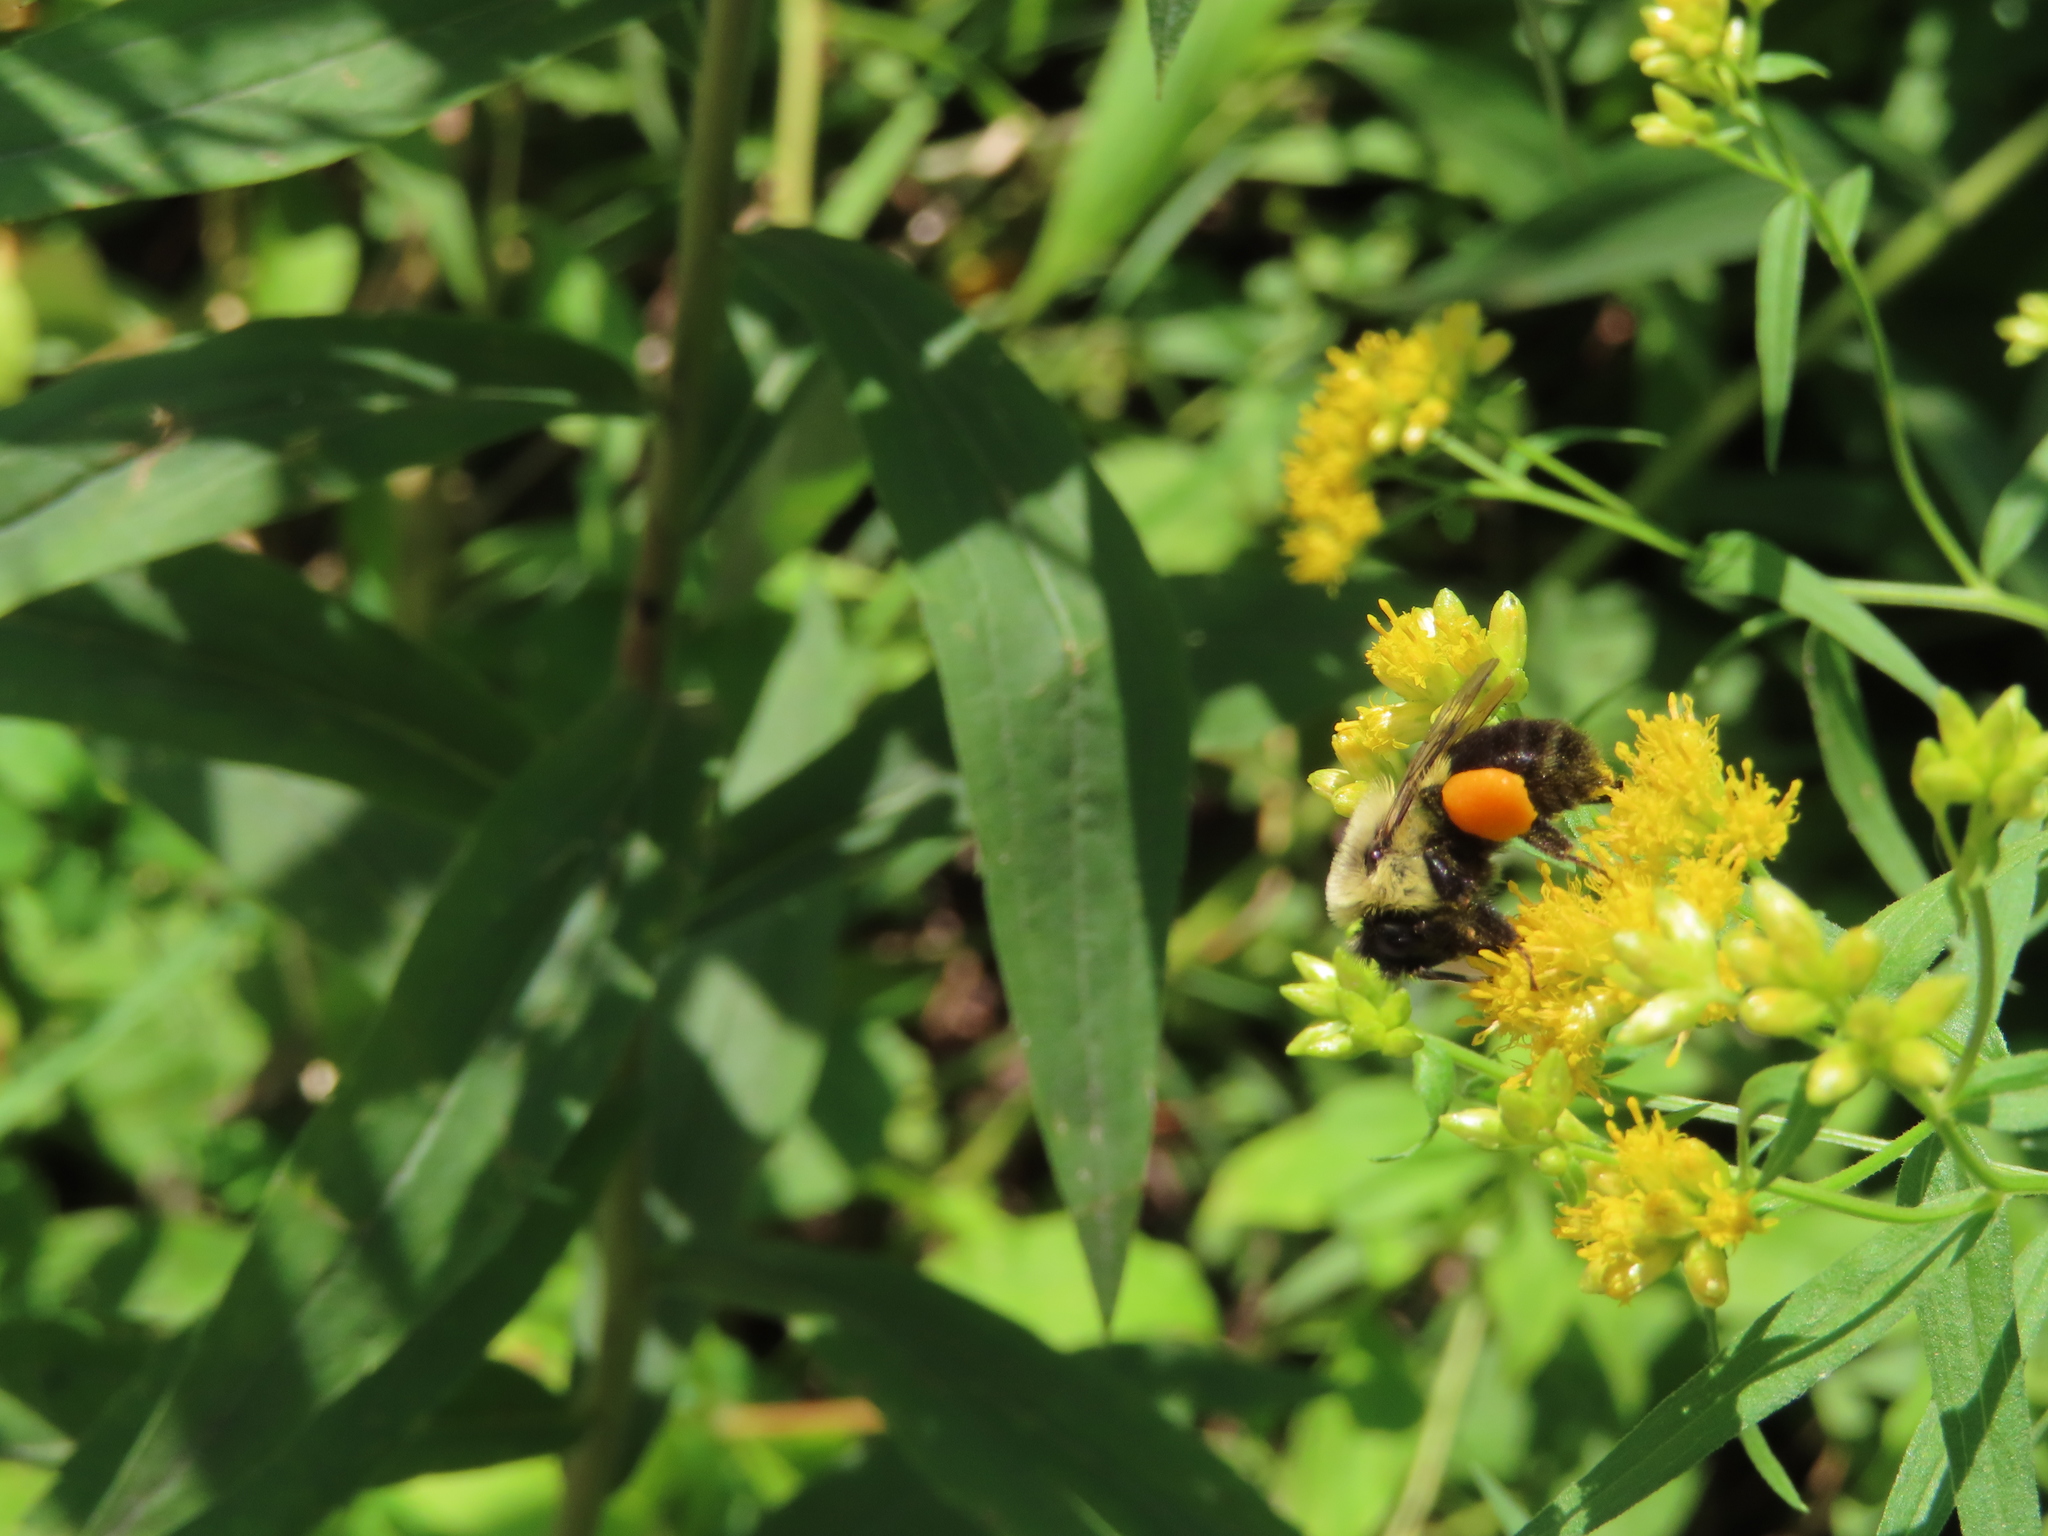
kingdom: Animalia
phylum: Arthropoda
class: Insecta
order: Hymenoptera
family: Apidae
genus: Bombus
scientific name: Bombus impatiens
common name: Common eastern bumble bee
